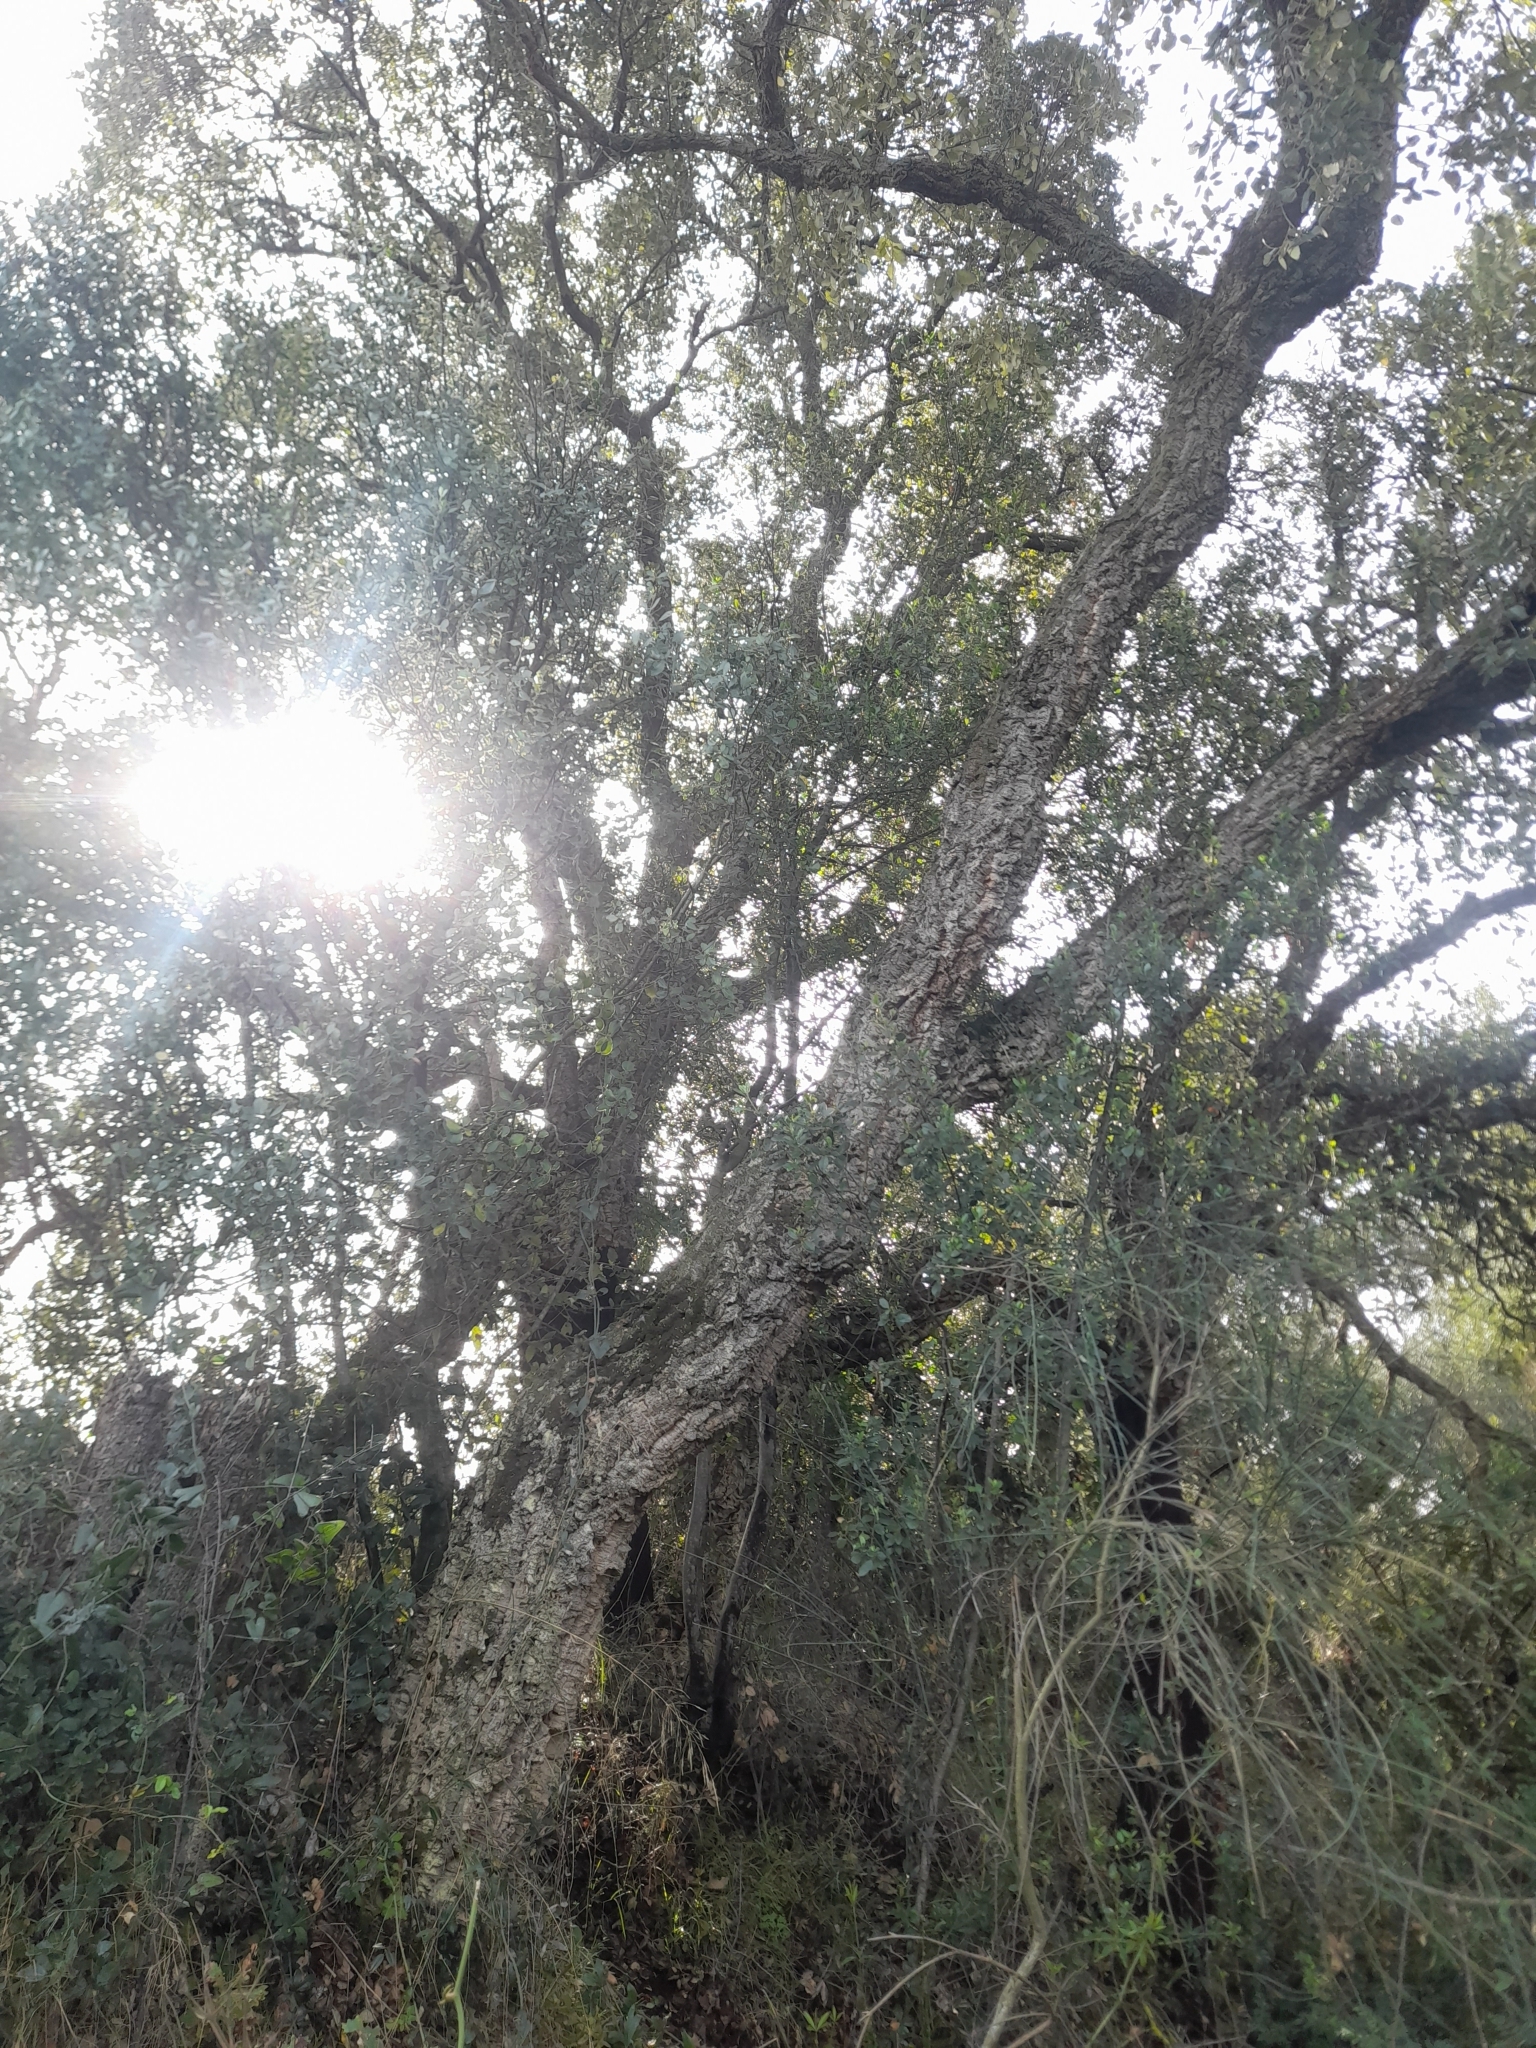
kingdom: Plantae
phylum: Tracheophyta
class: Magnoliopsida
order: Fagales
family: Fagaceae
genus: Quercus
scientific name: Quercus suber
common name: Cork oak
